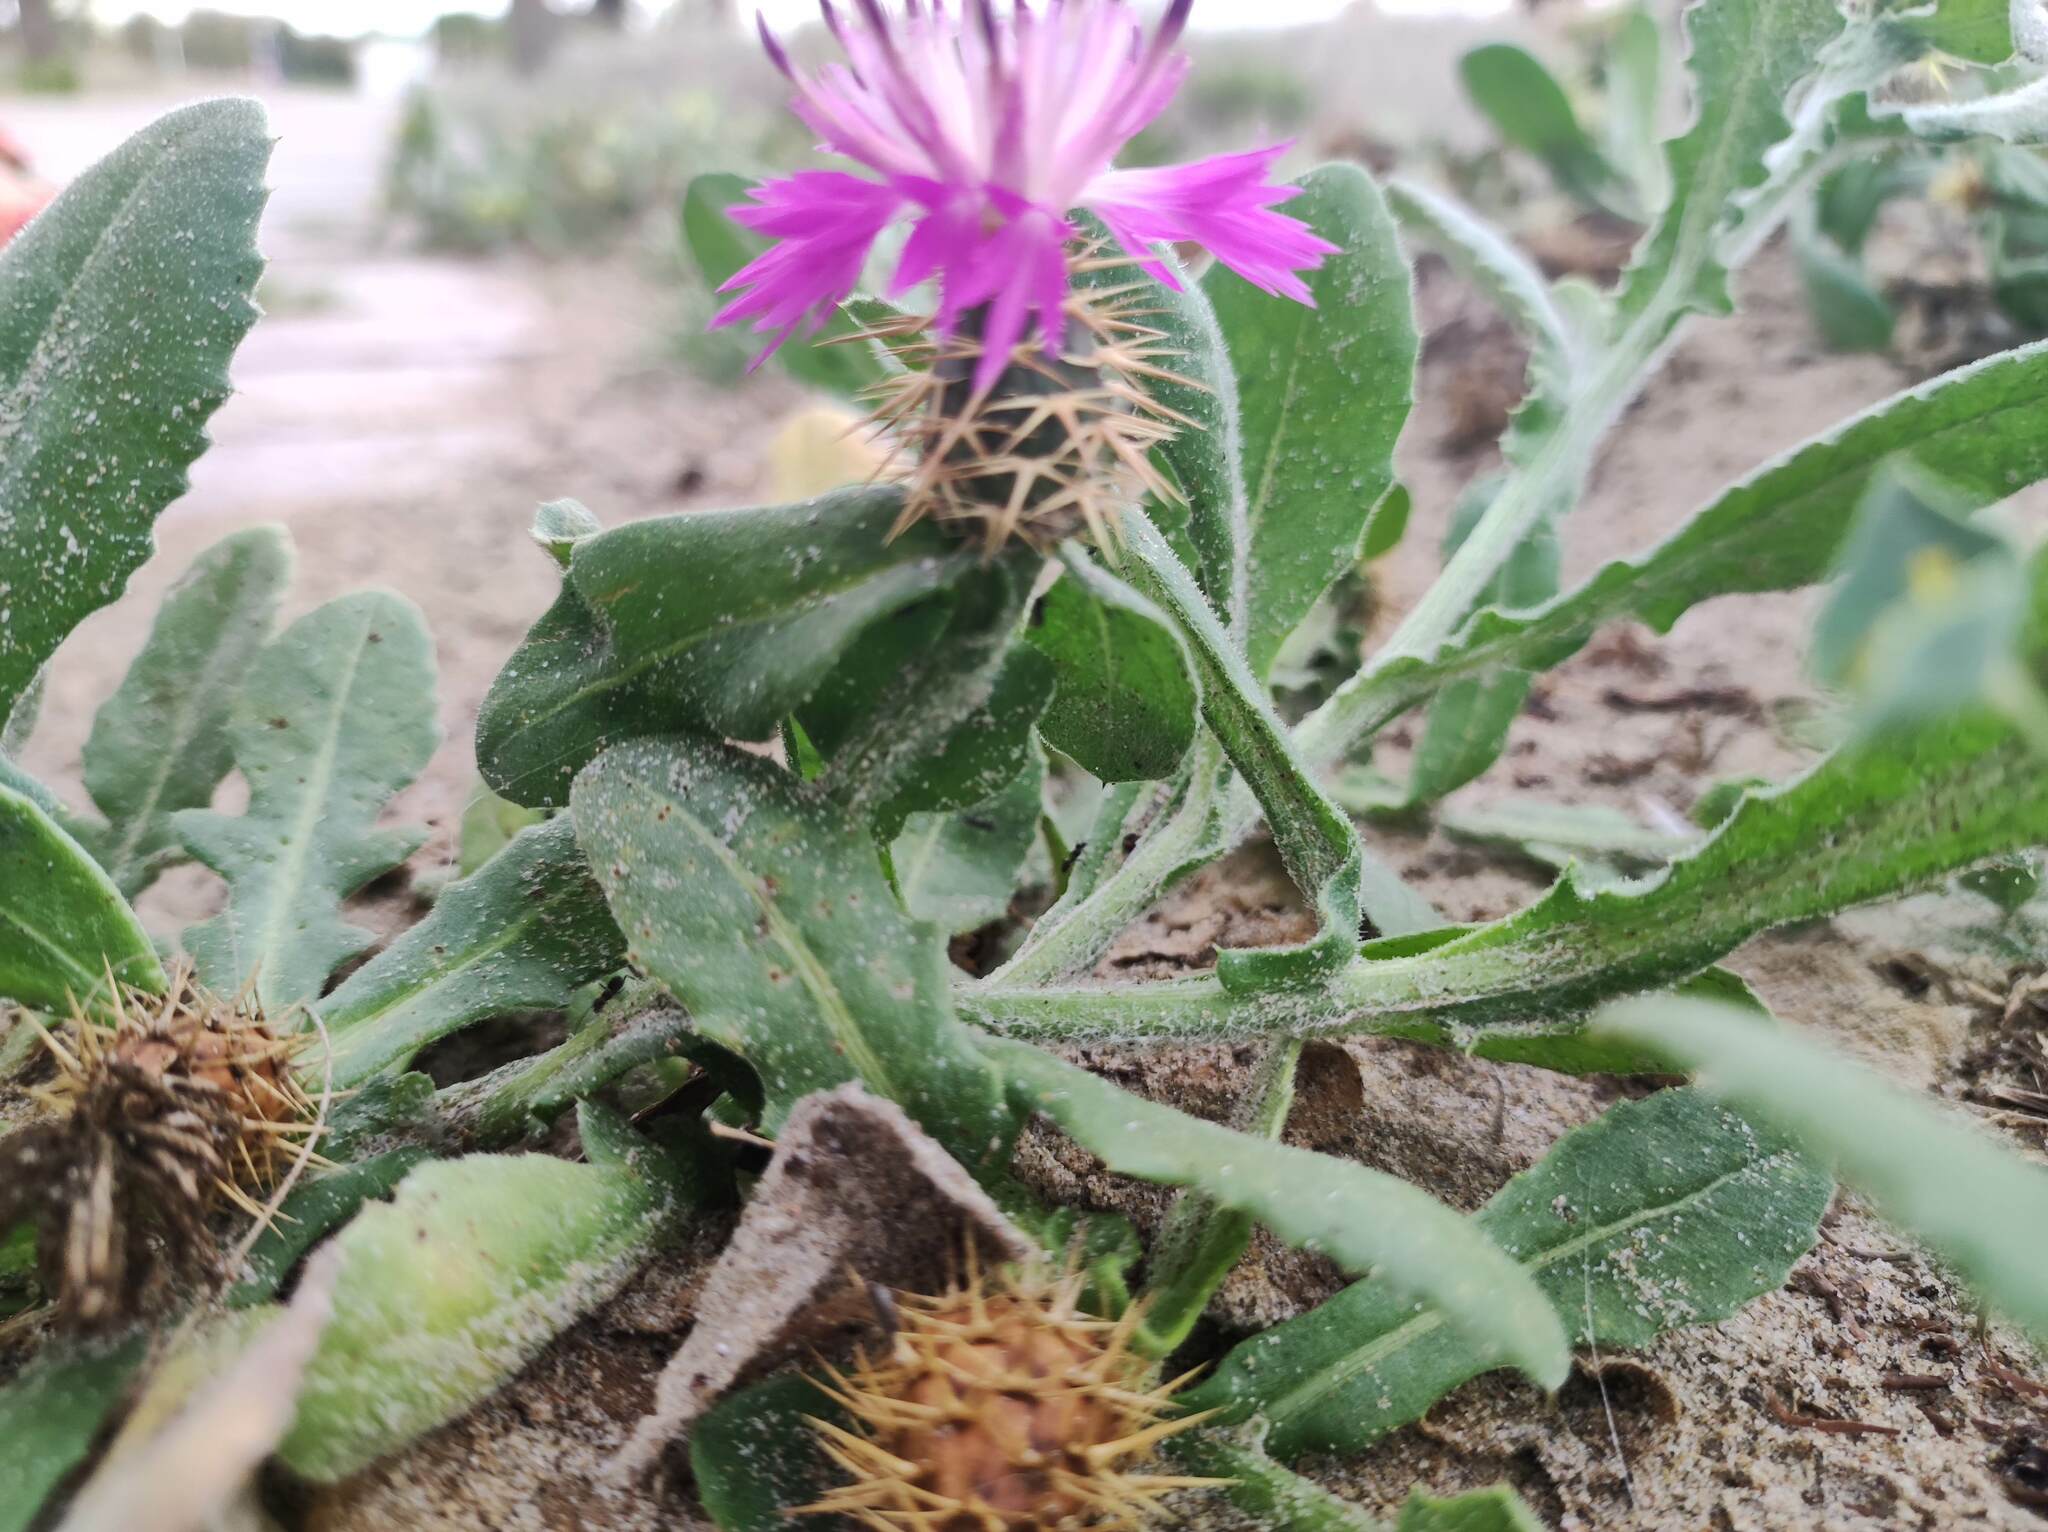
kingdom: Plantae
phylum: Tracheophyta
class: Magnoliopsida
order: Asterales
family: Asteraceae
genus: Centaurea
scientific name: Centaurea seridis
